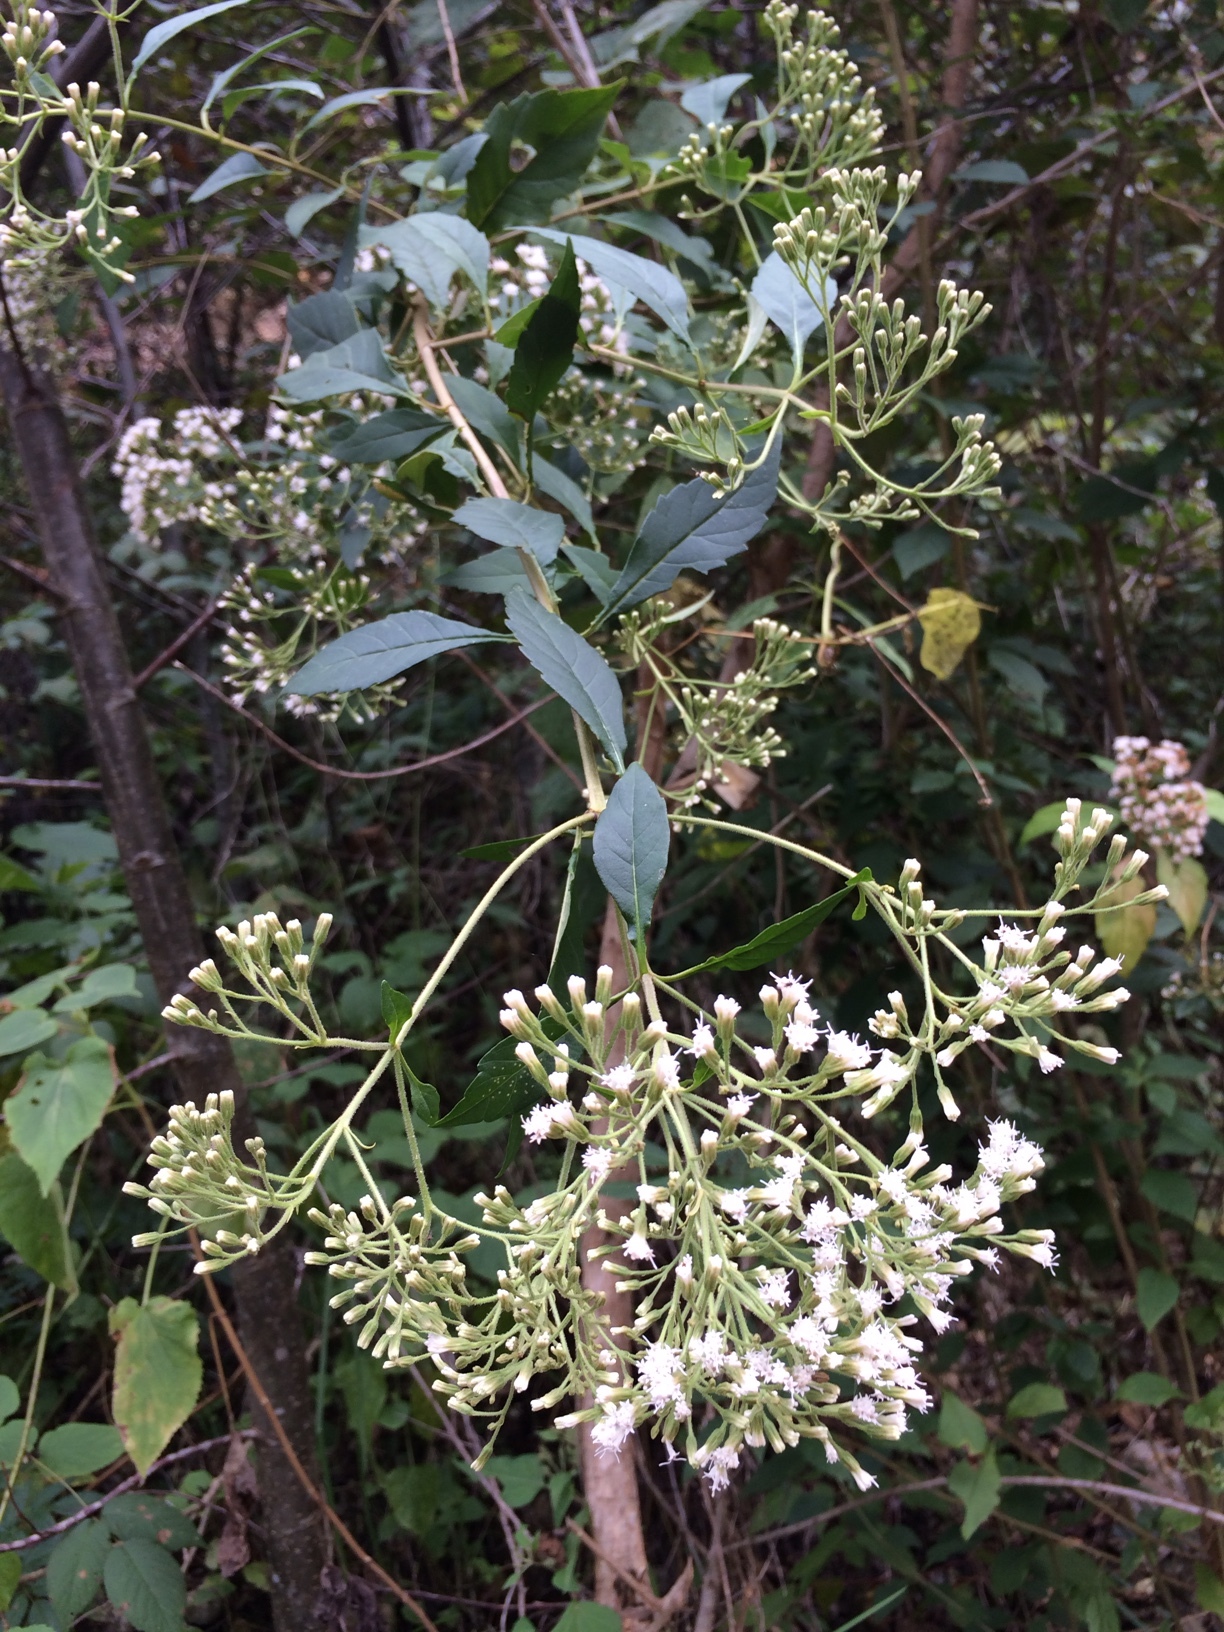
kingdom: Plantae
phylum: Tracheophyta
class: Magnoliopsida
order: Asterales
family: Asteraceae
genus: Ageratina
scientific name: Ageratina ligustrina
